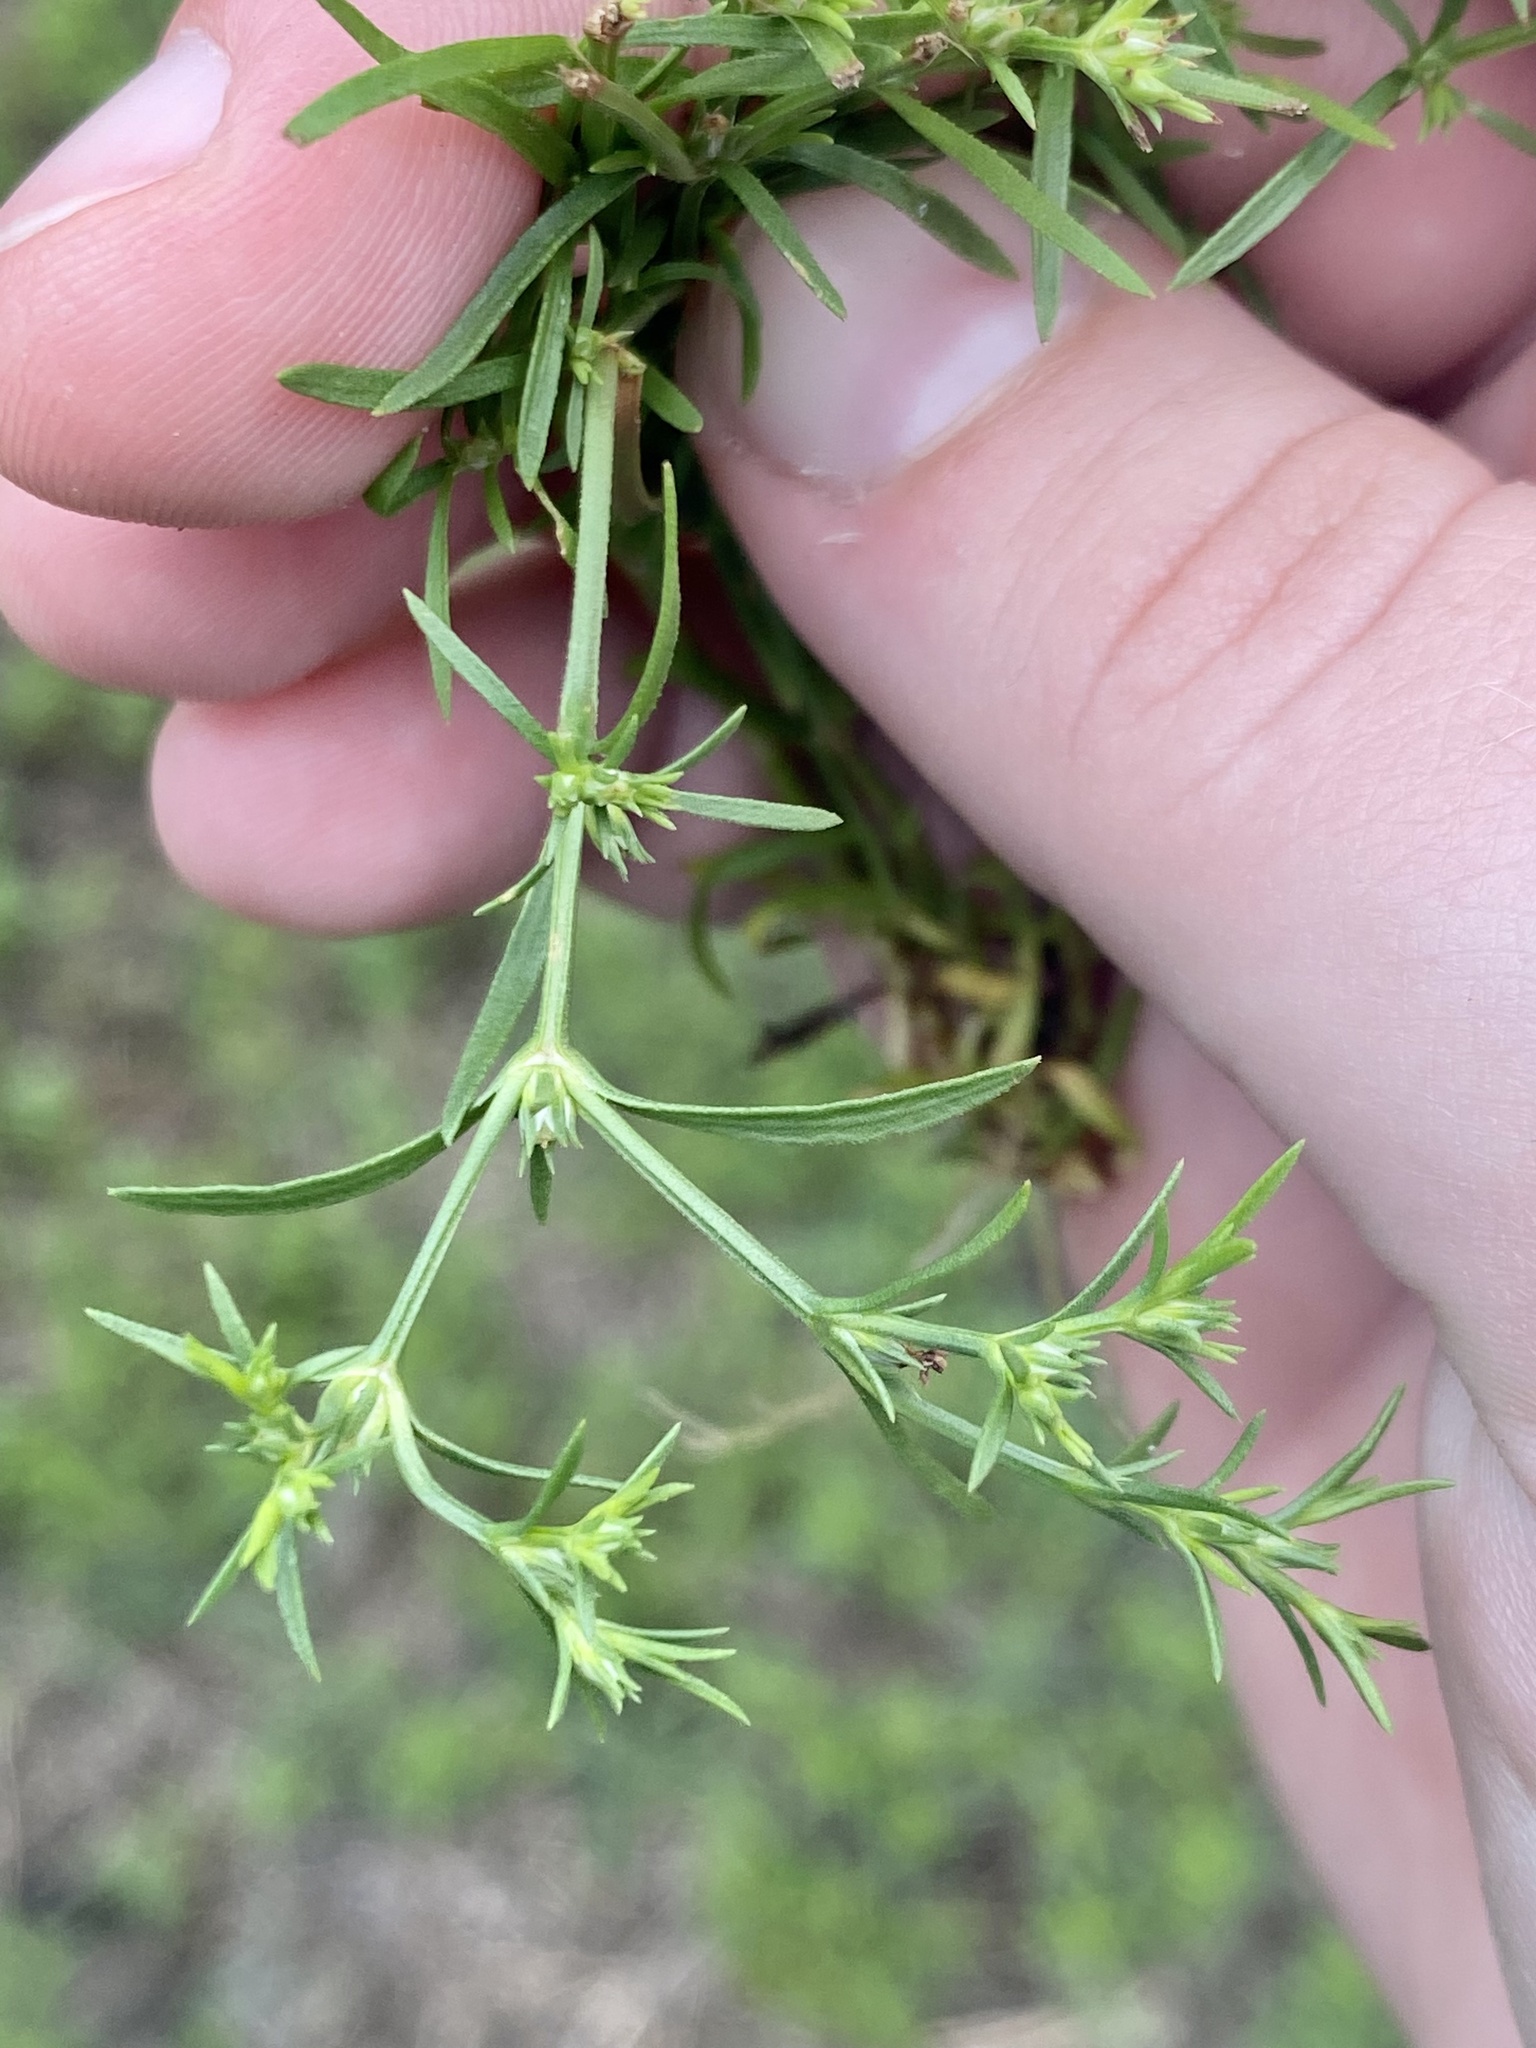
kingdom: Plantae
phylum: Tracheophyta
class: Magnoliopsida
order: Lamiales
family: Tetrachondraceae
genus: Polypremum
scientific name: Polypremum procumbens
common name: Juniper-leaf
